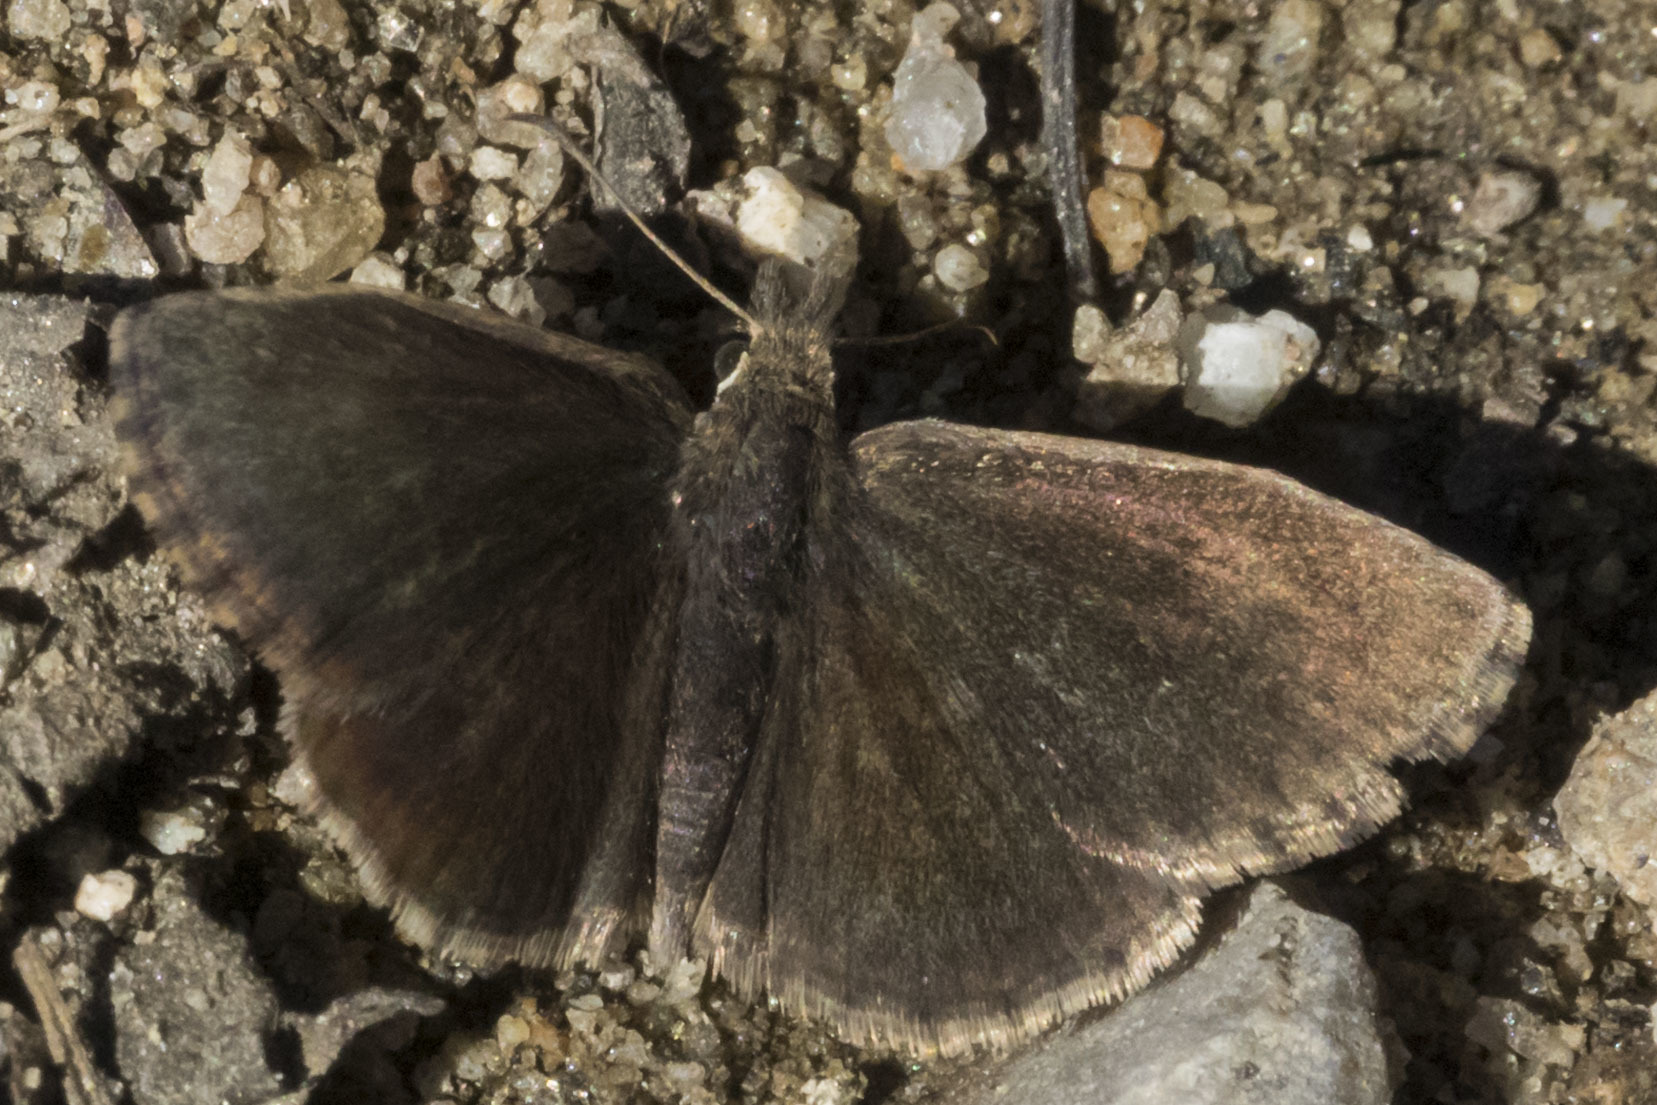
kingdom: Animalia
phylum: Arthropoda
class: Insecta
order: Lepidoptera
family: Hesperiidae
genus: Zopyrion
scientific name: Zopyrion evenor
